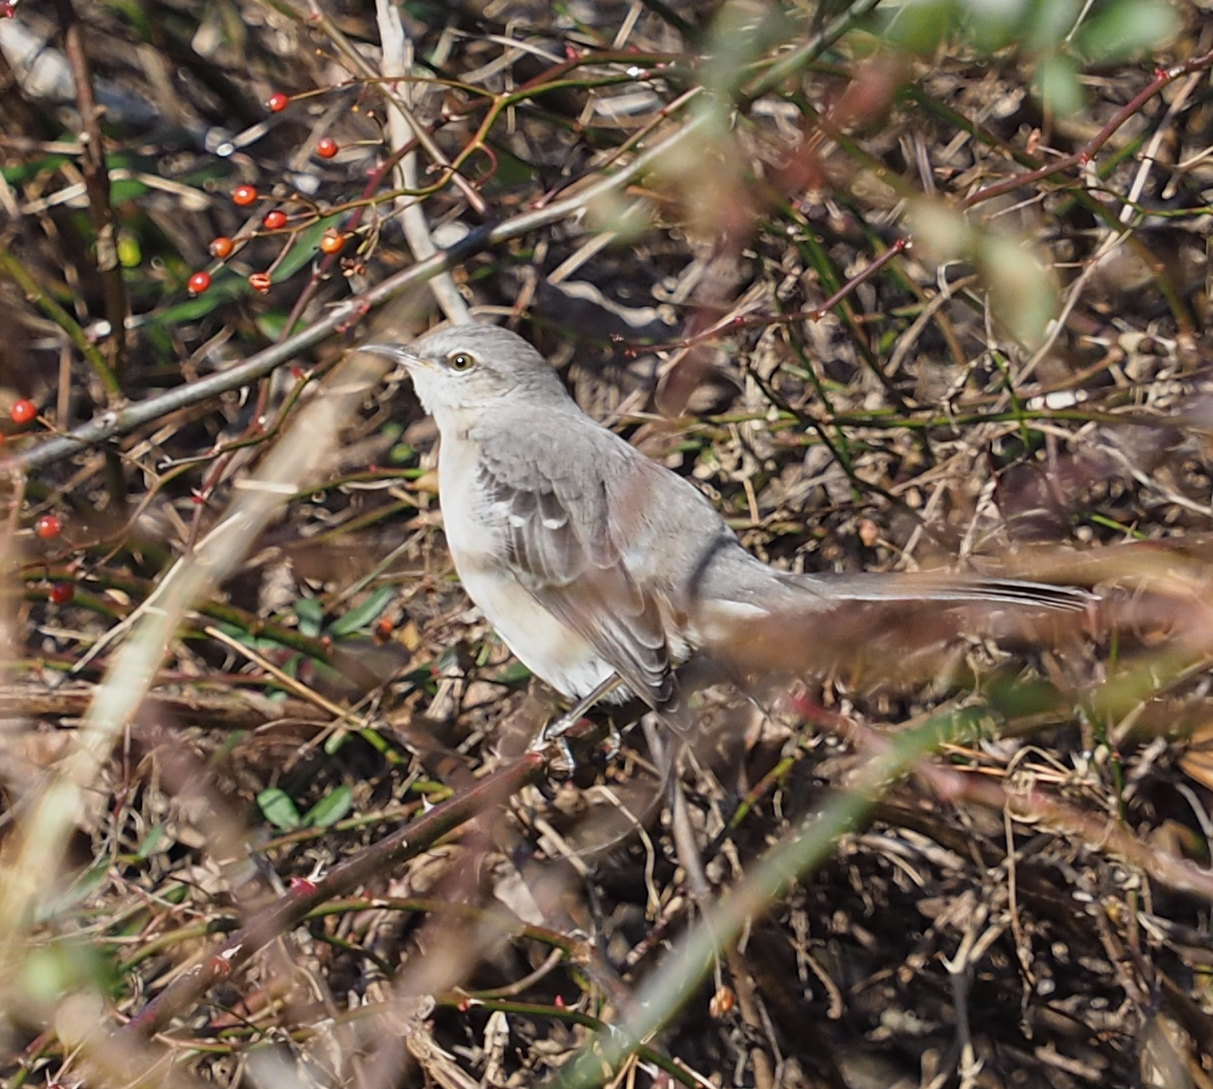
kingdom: Animalia
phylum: Chordata
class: Aves
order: Passeriformes
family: Mimidae
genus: Mimus
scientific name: Mimus polyglottos
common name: Northern mockingbird
